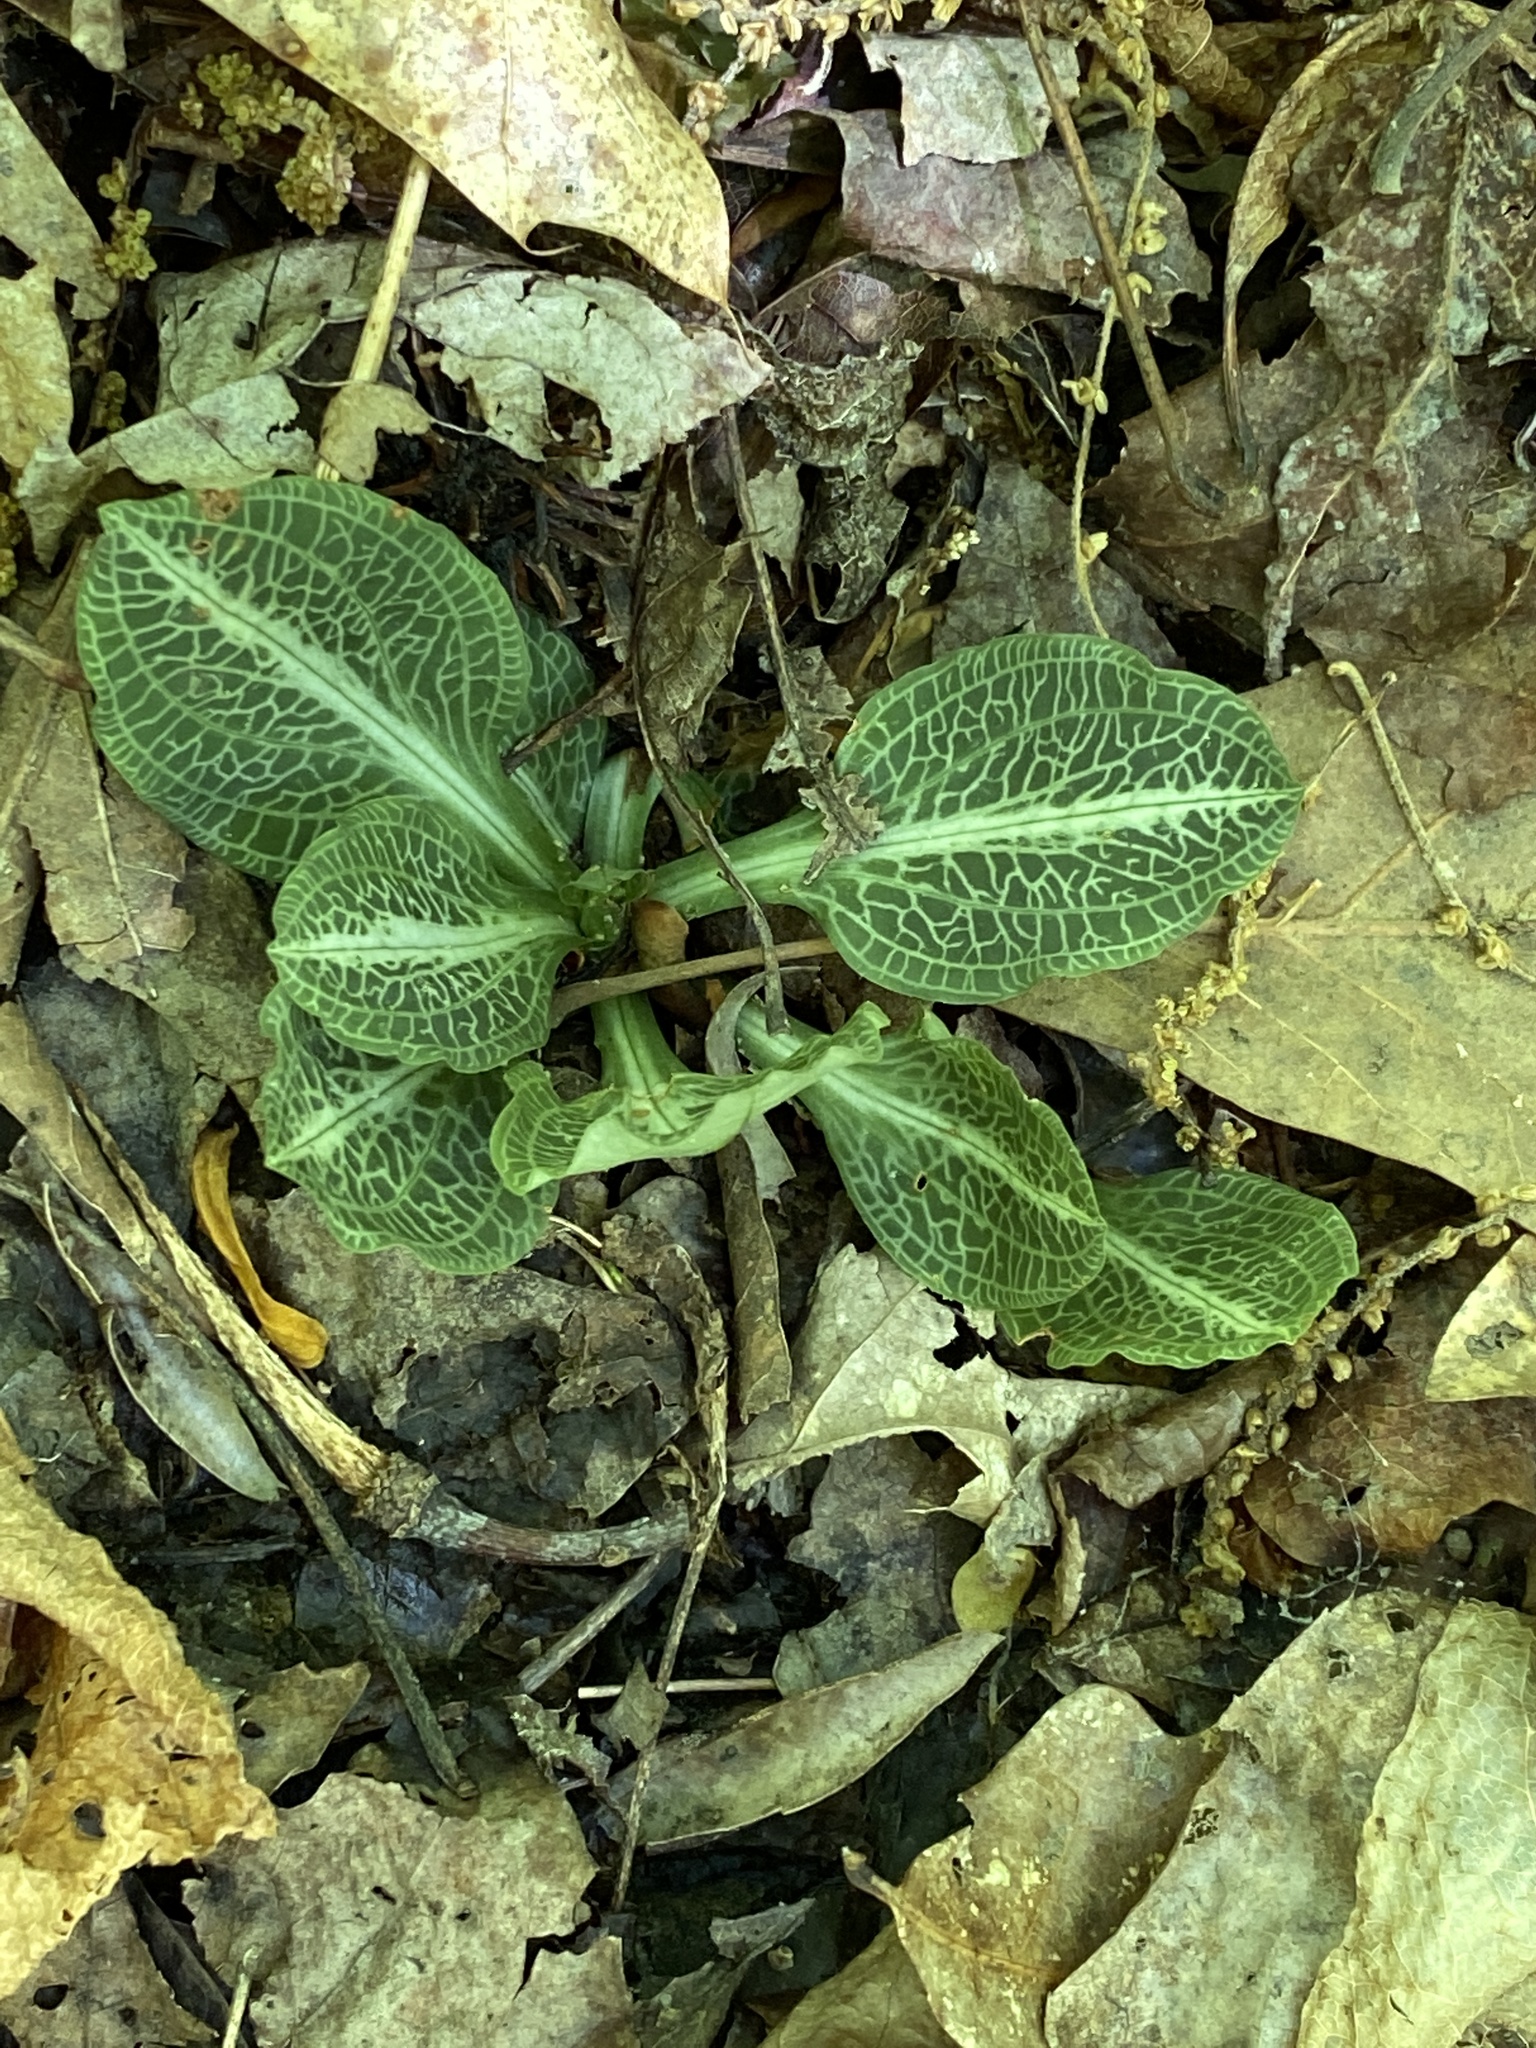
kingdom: Plantae
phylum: Tracheophyta
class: Liliopsida
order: Asparagales
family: Orchidaceae
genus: Goodyera
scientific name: Goodyera pubescens
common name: Downy rattlesnake-plantain
